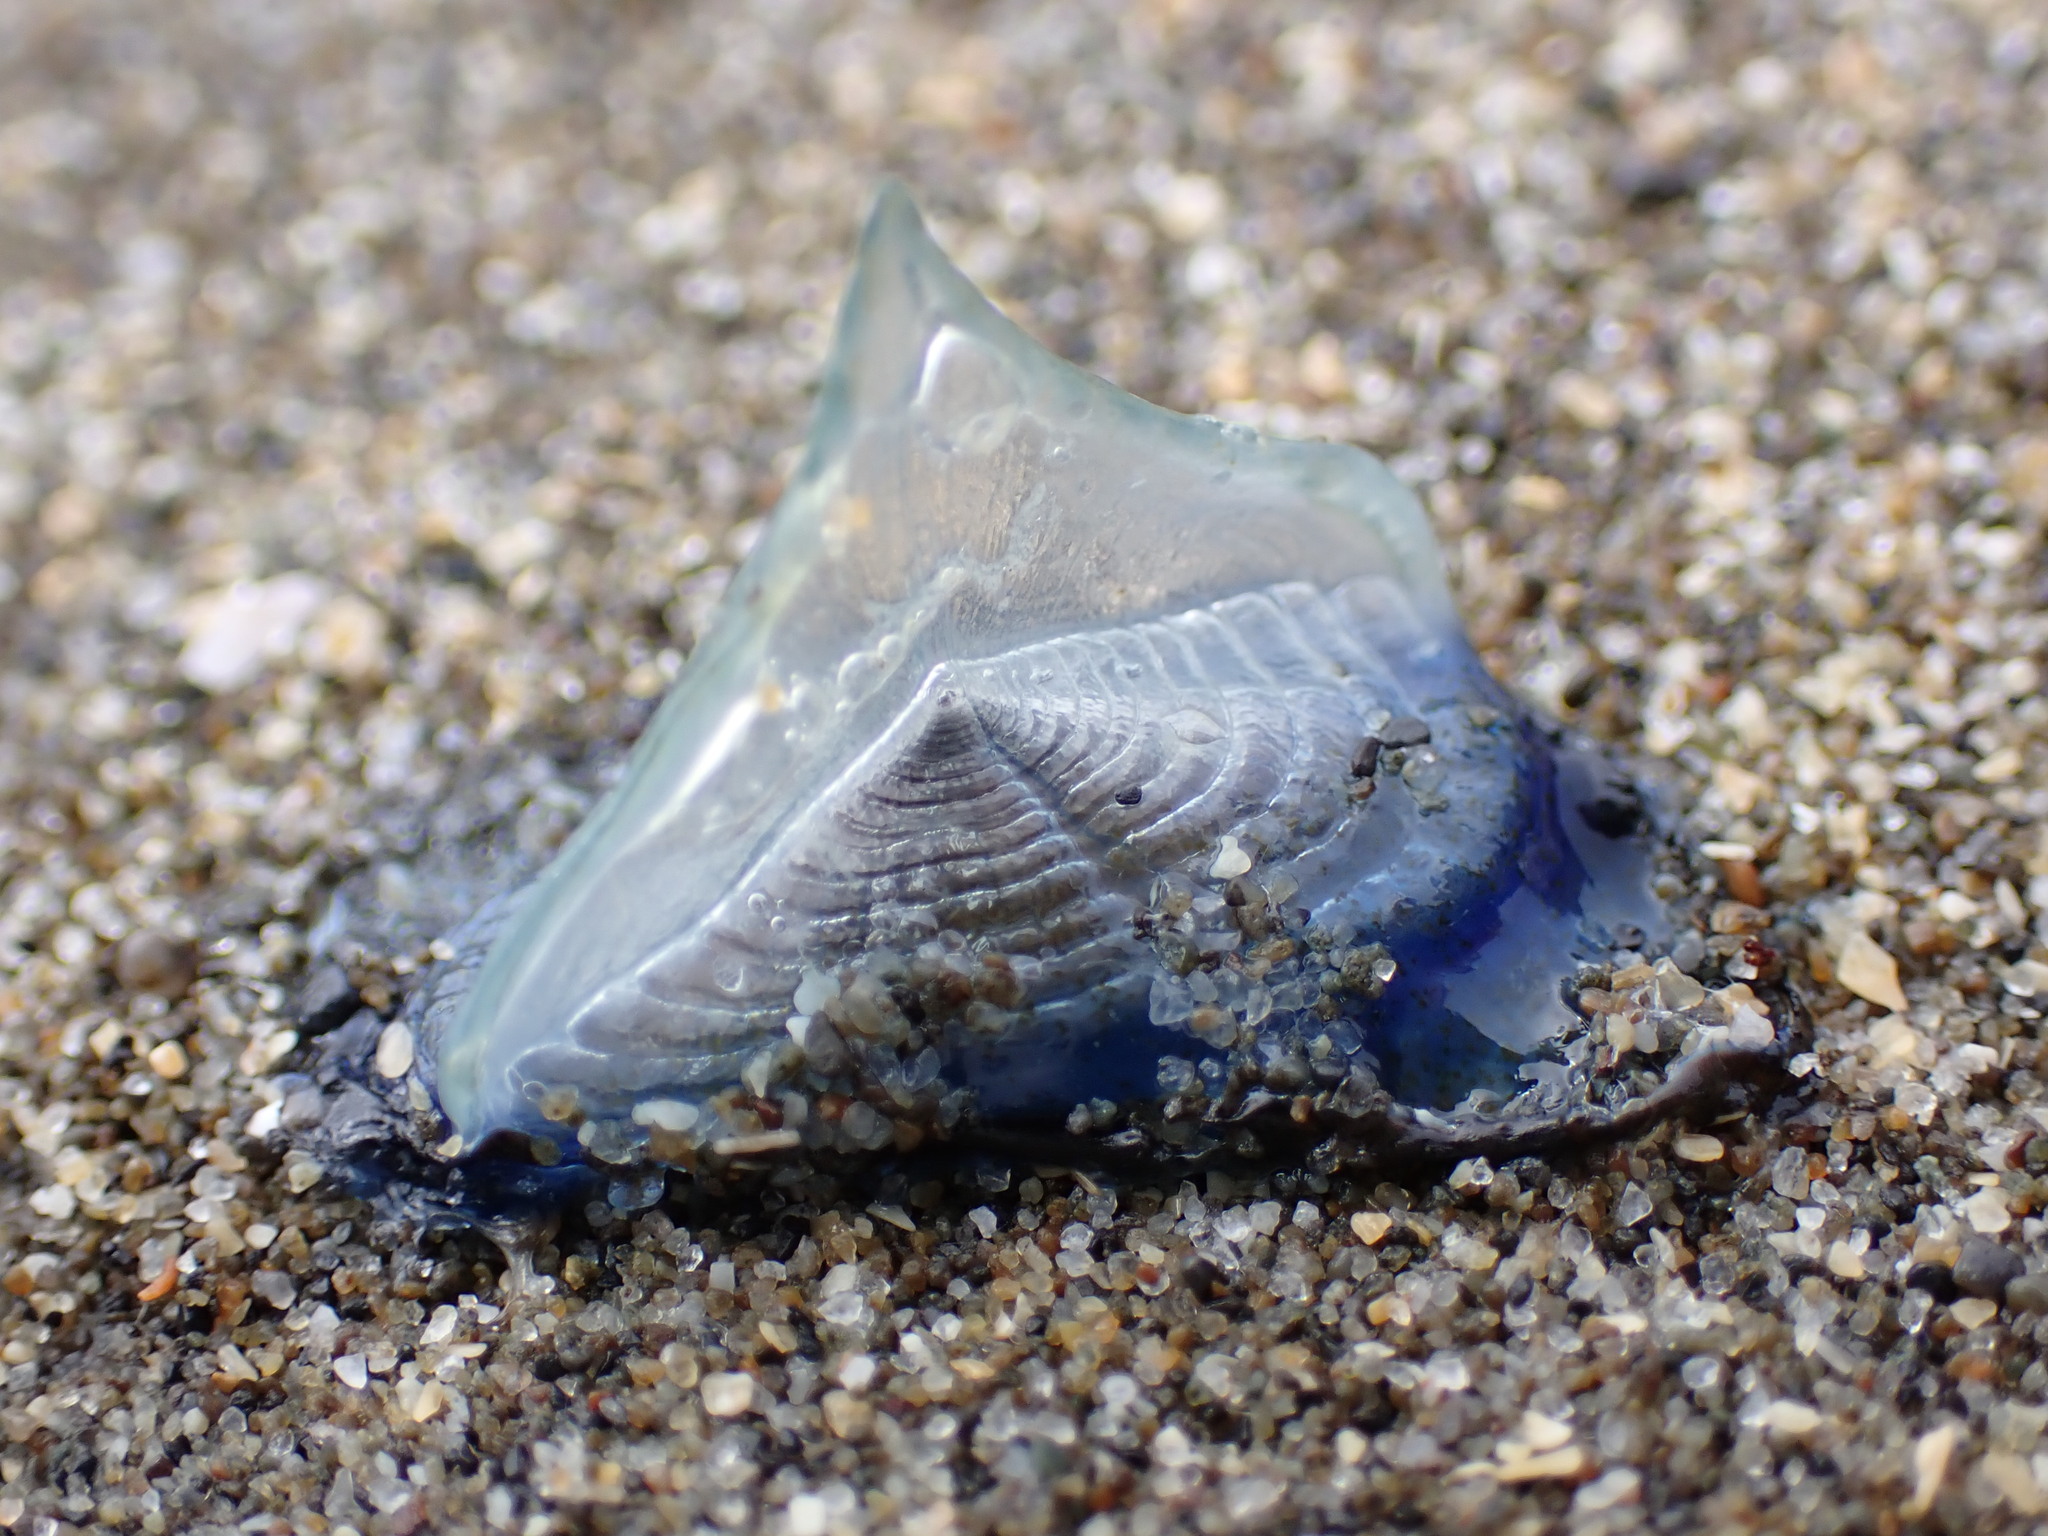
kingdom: Animalia
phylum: Cnidaria
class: Hydrozoa
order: Anthoathecata
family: Porpitidae
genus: Velella
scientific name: Velella velella
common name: By-the-wind-sailor
